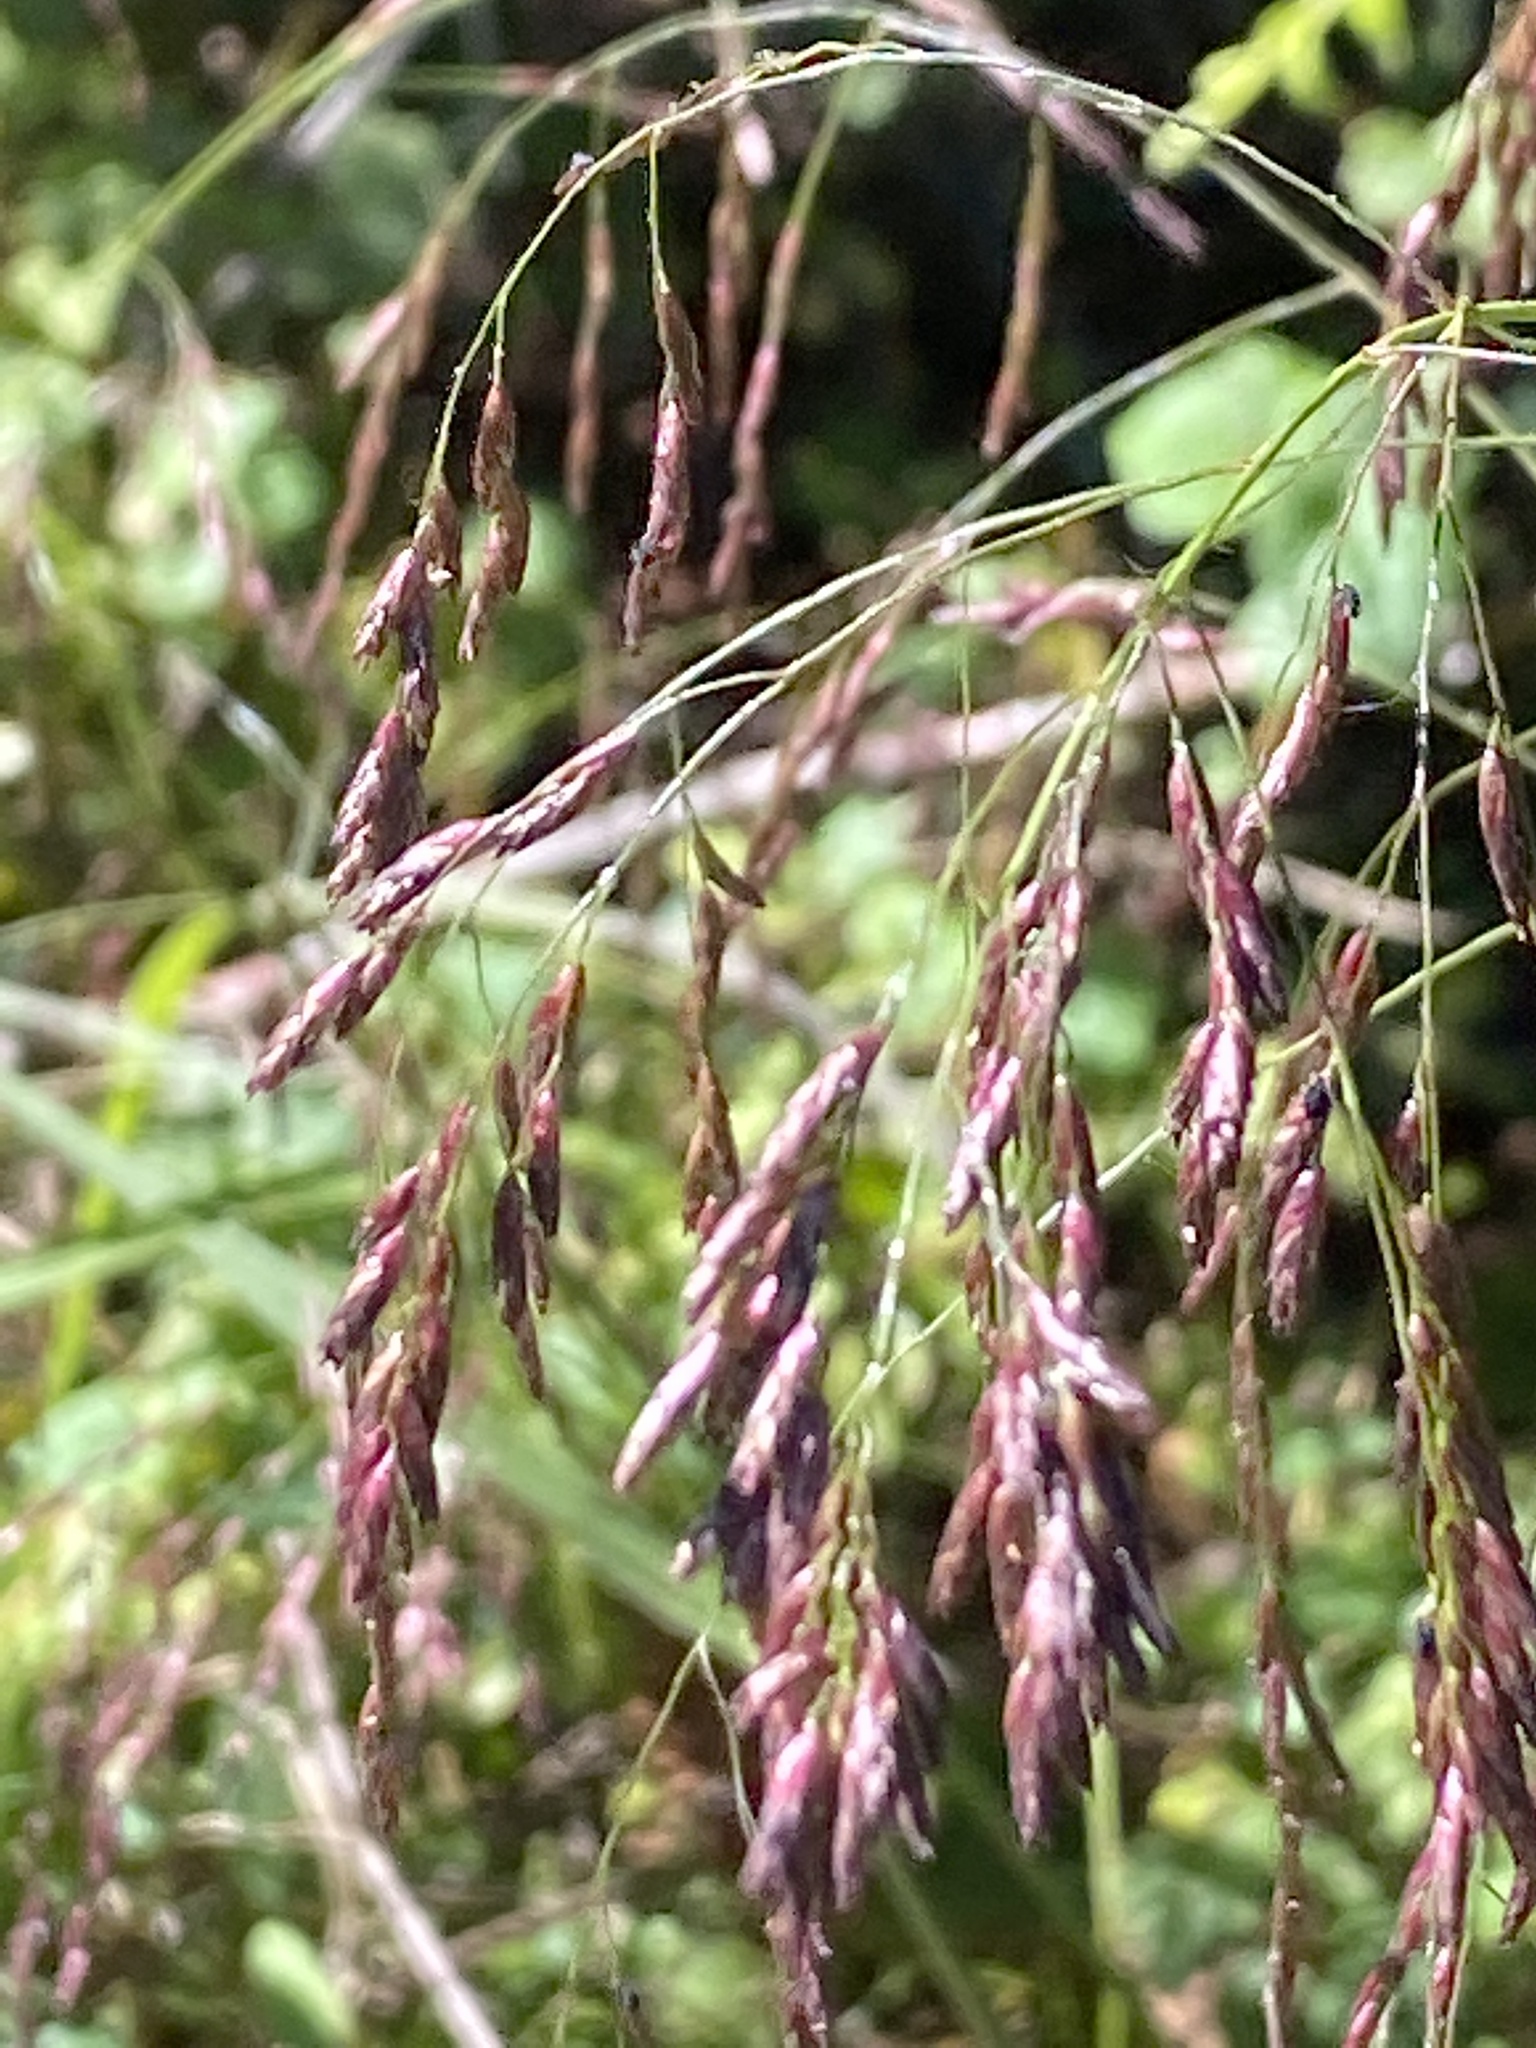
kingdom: Plantae
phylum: Tracheophyta
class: Liliopsida
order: Poales
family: Poaceae
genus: Tridens
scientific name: Tridens flavus
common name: Purpletop
